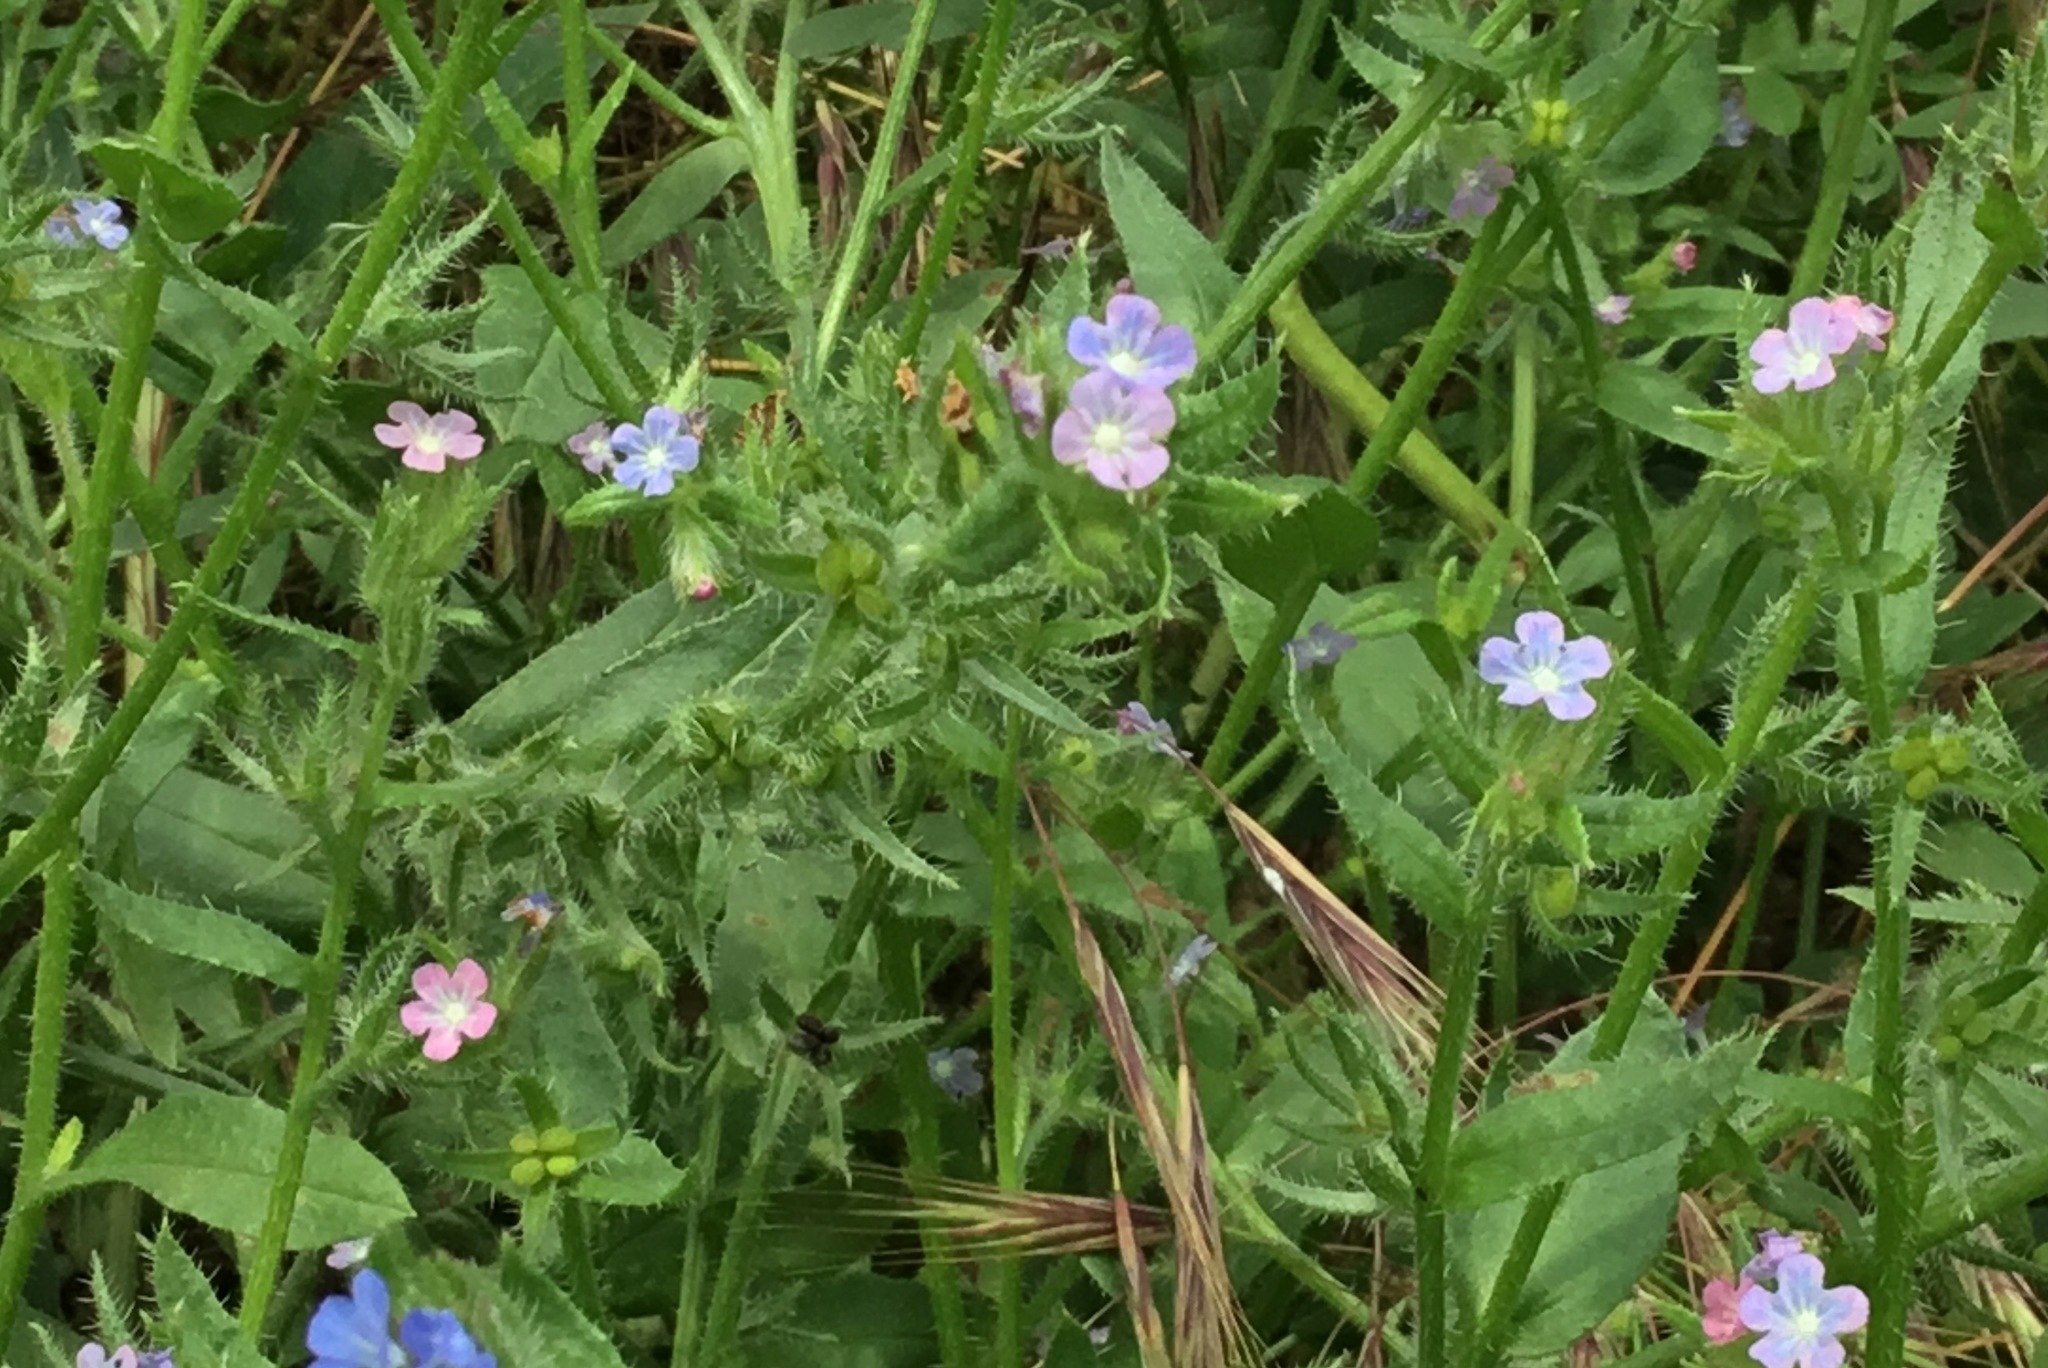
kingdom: Plantae
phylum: Tracheophyta
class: Magnoliopsida
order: Boraginales
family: Boraginaceae
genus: Lycopsis
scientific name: Lycopsis arvensis
